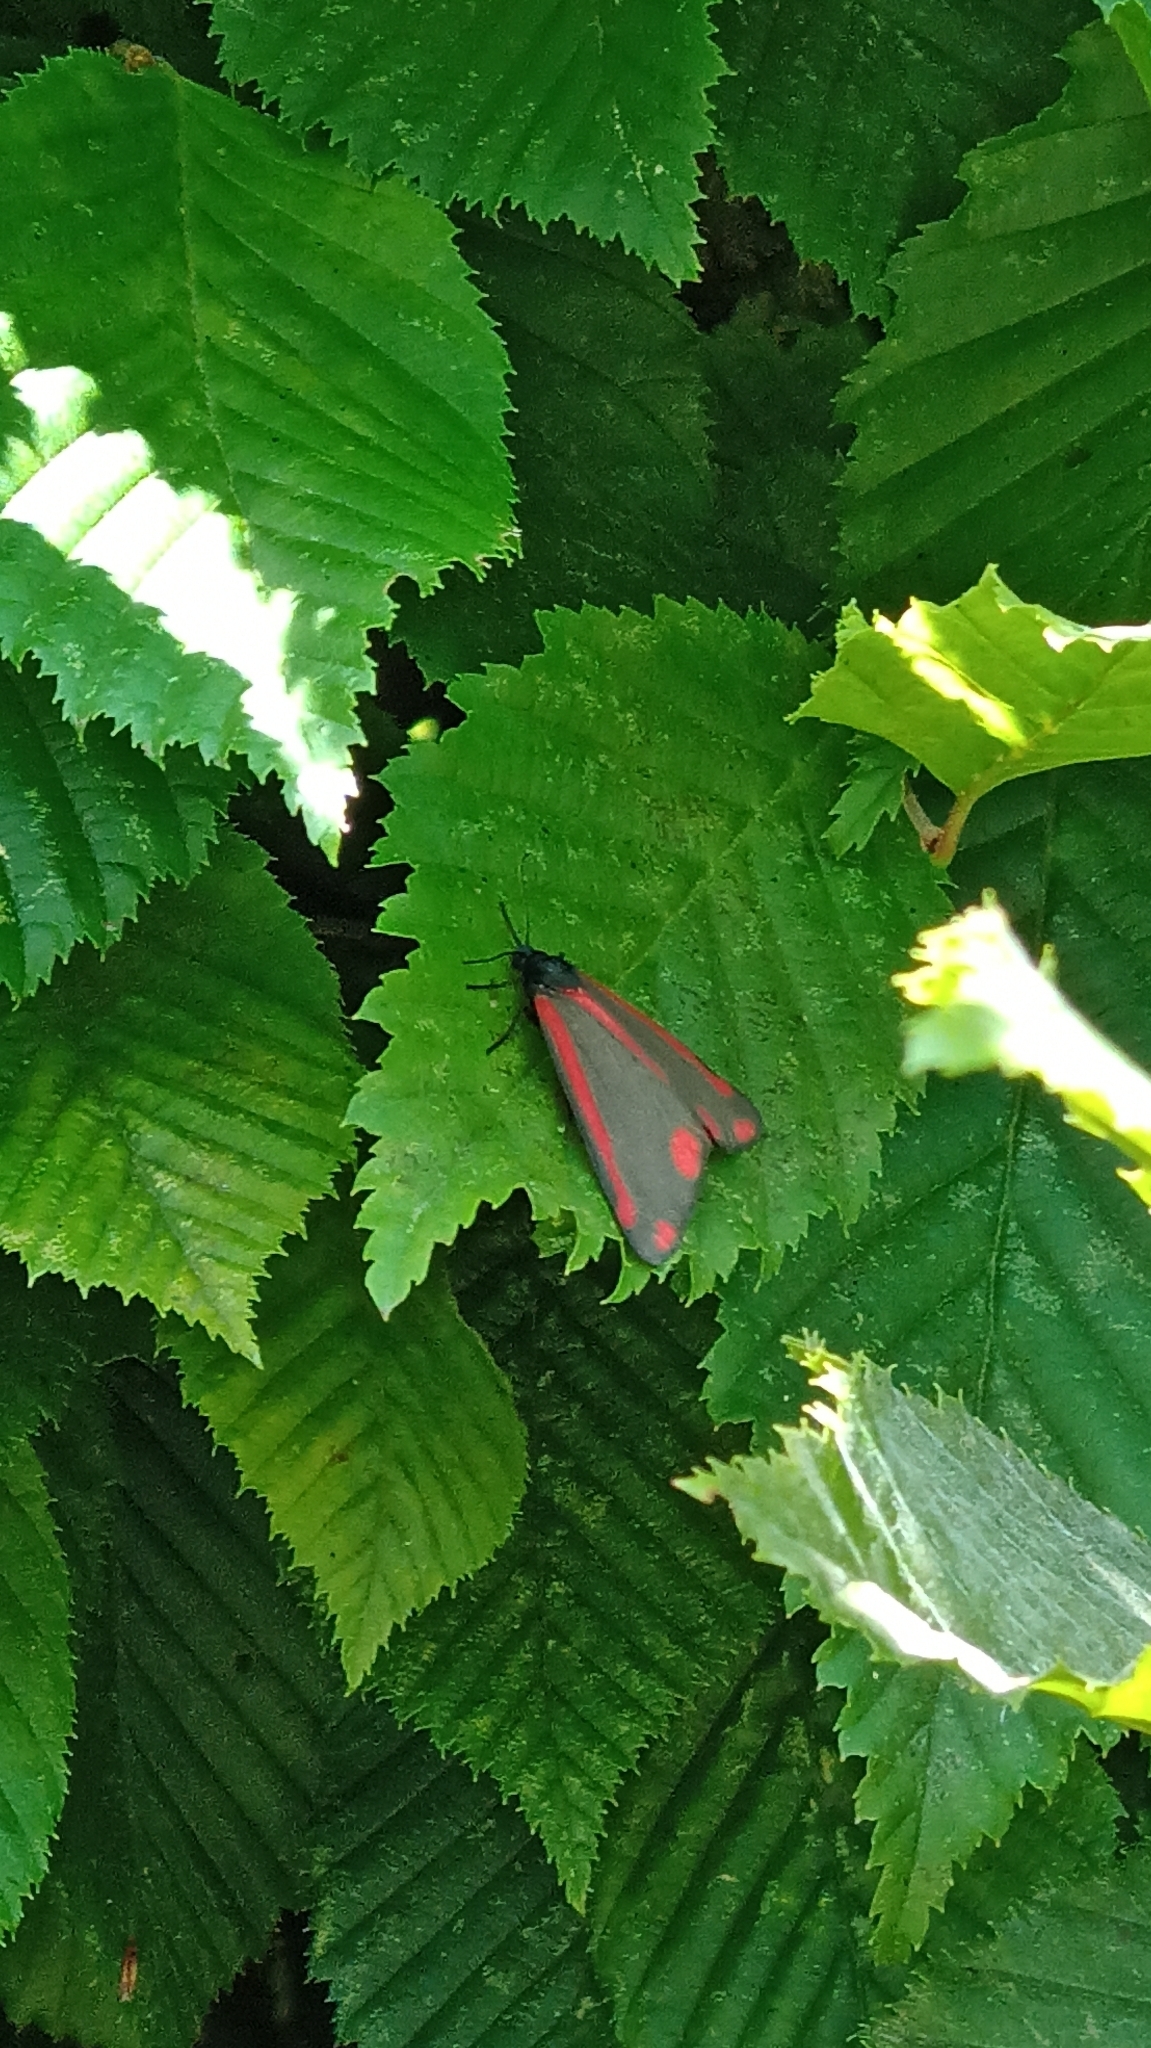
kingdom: Animalia
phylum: Arthropoda
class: Insecta
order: Lepidoptera
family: Erebidae
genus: Tyria
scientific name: Tyria jacobaeae
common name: Cinnabar
